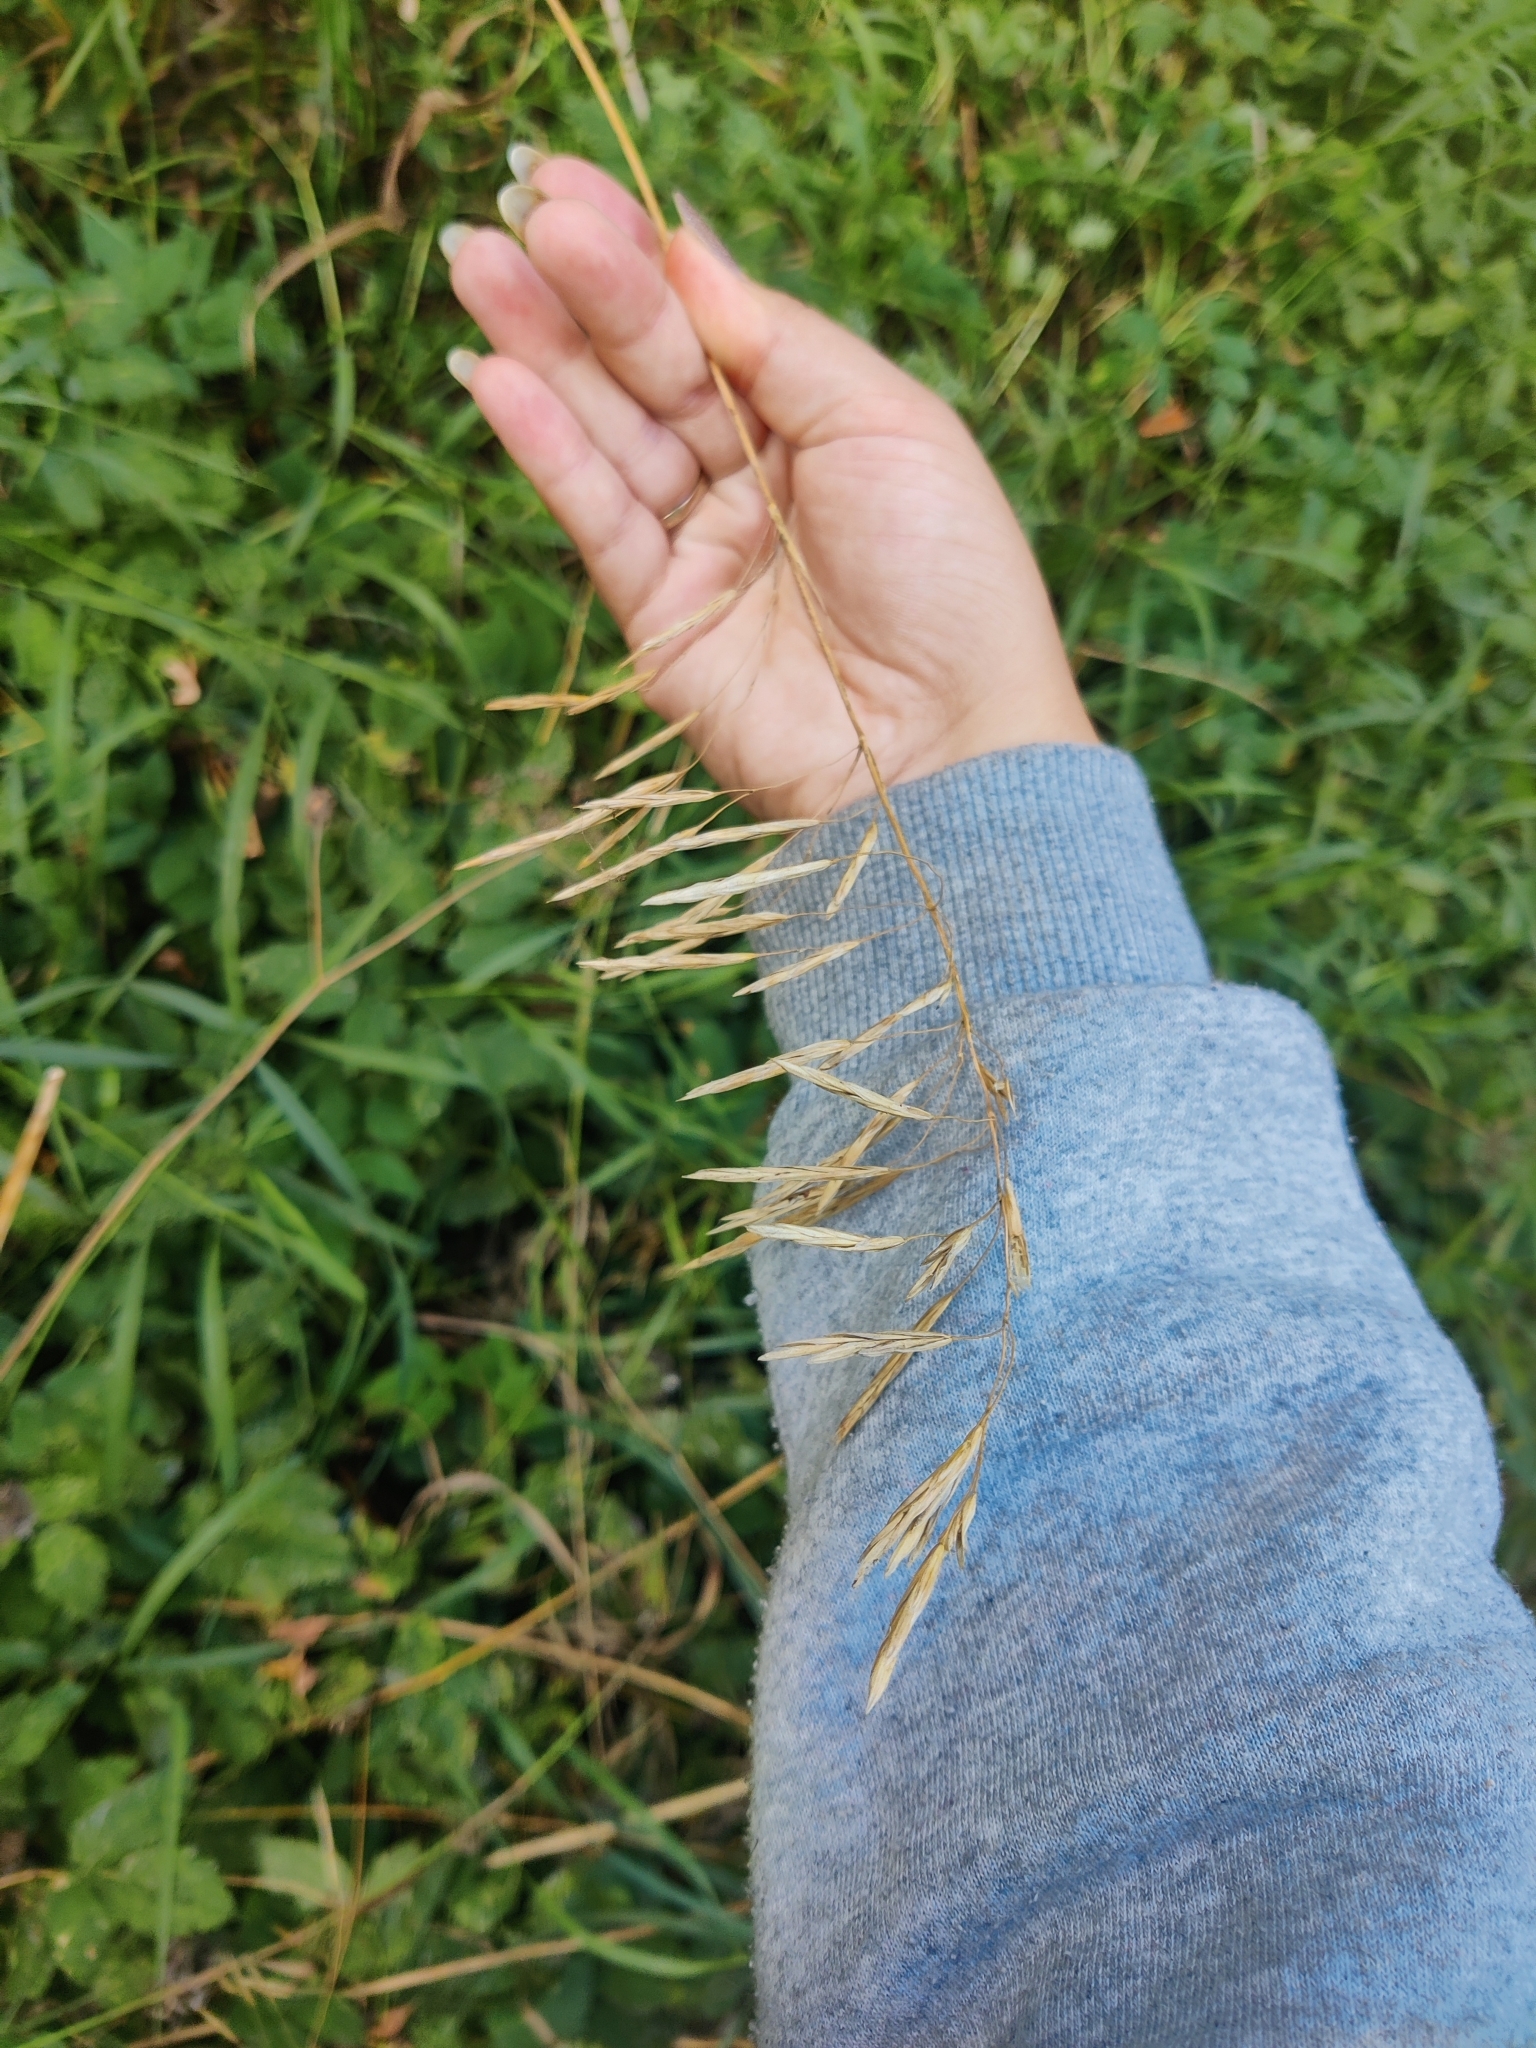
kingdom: Plantae
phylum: Tracheophyta
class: Liliopsida
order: Poales
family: Poaceae
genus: Bromus
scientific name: Bromus inermis
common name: Smooth brome
